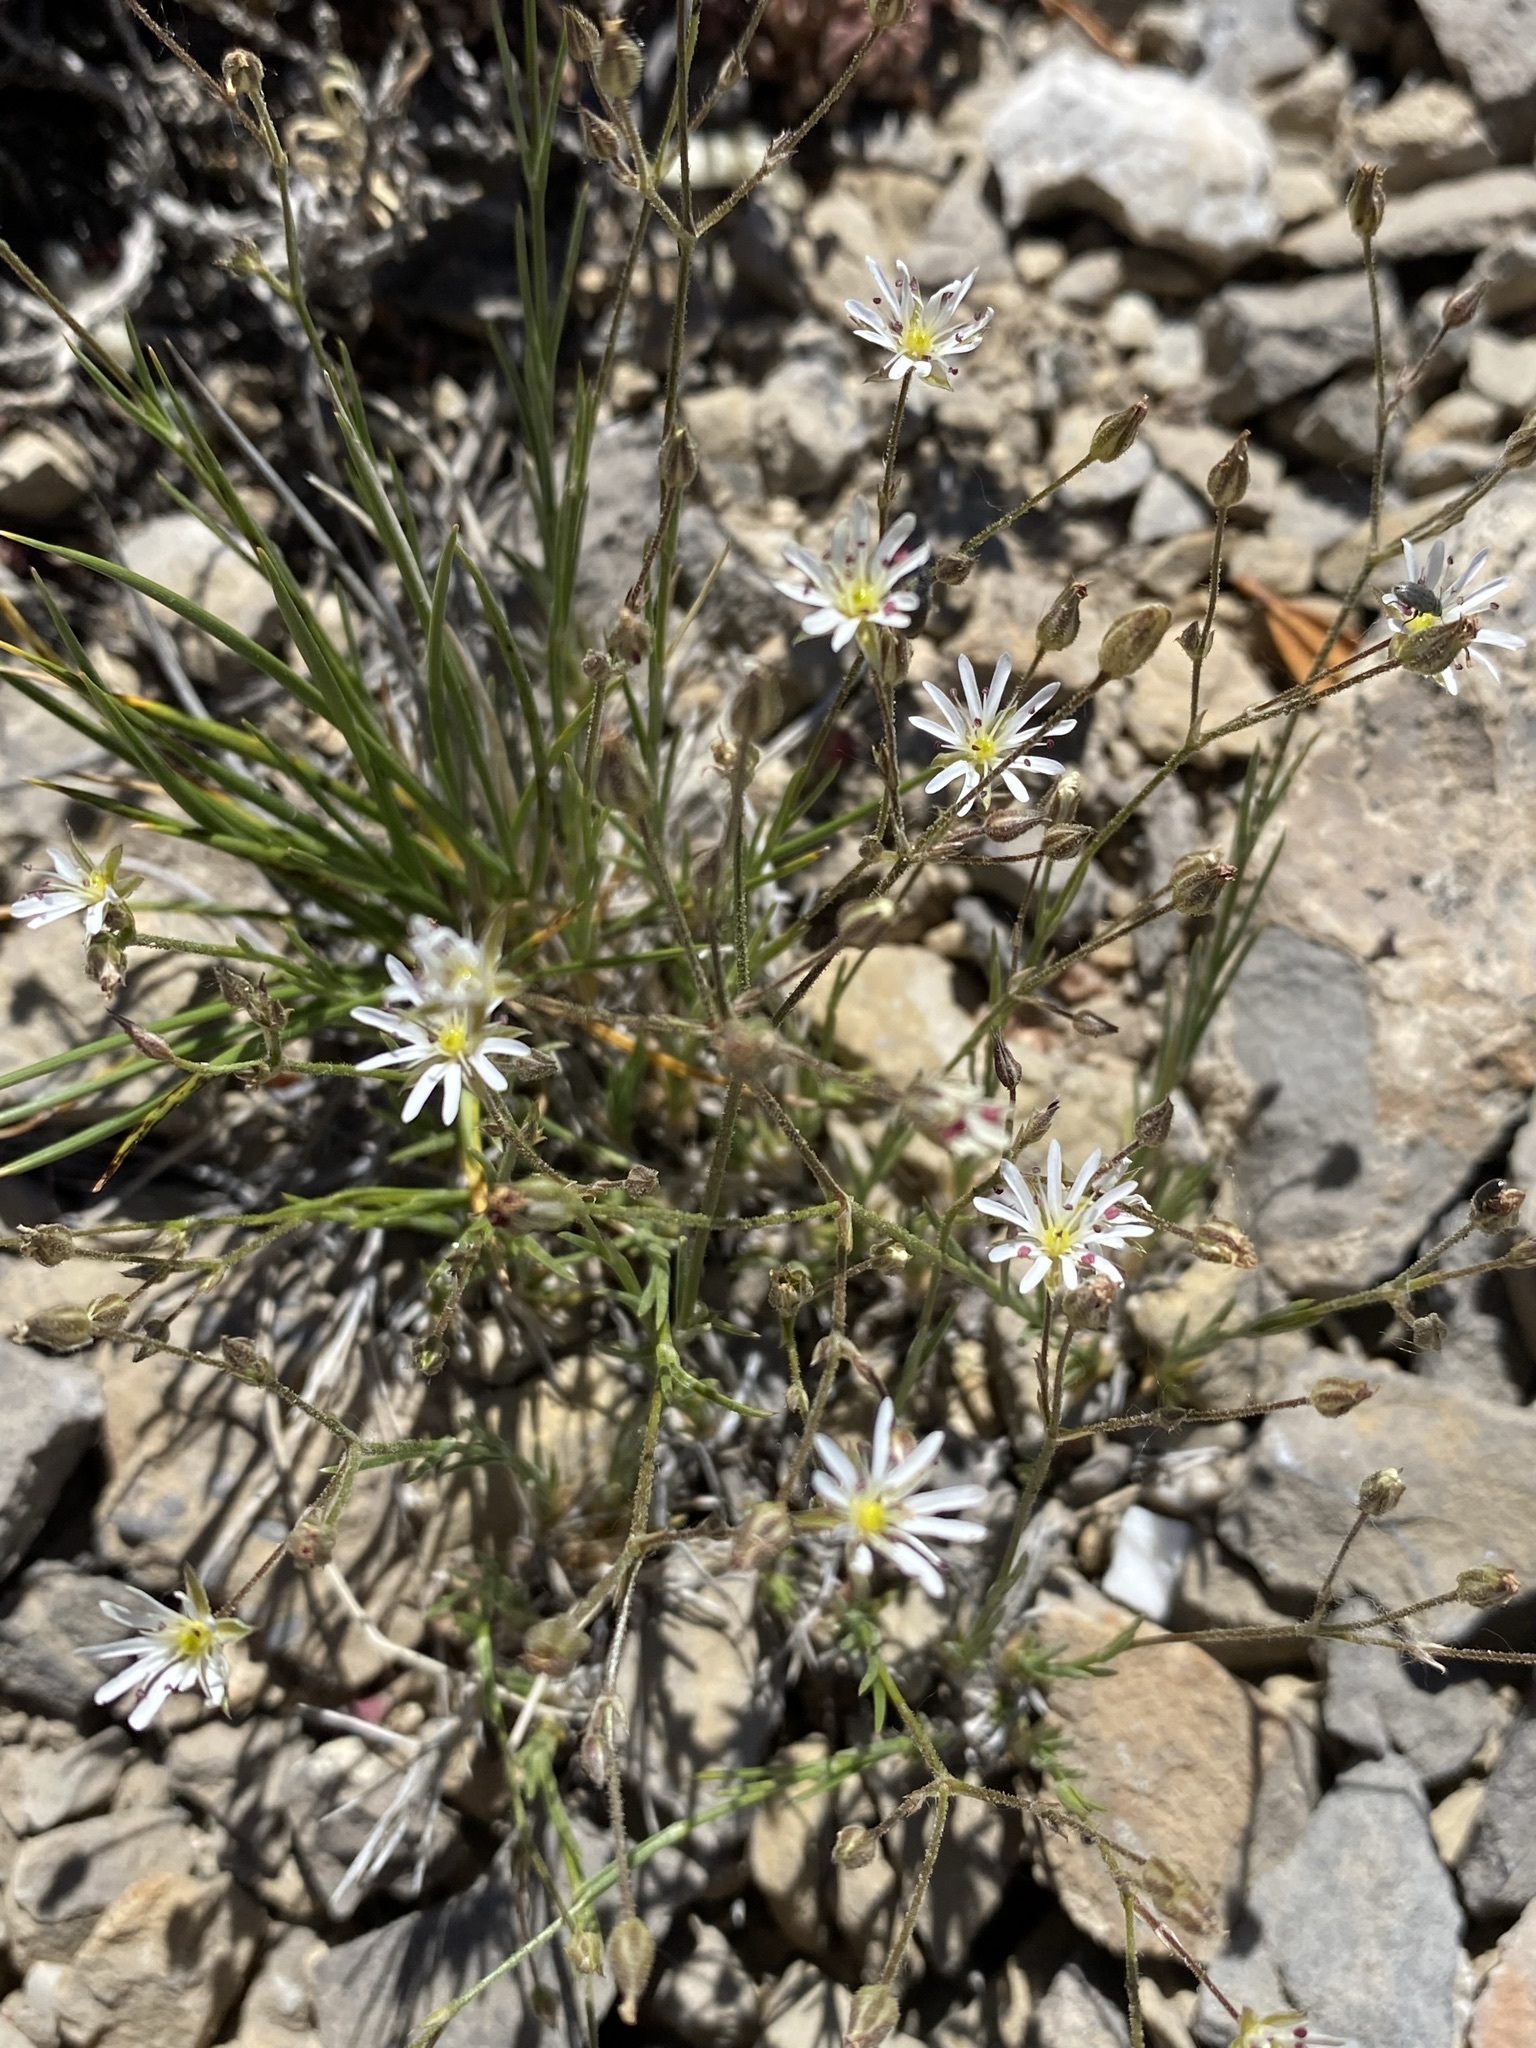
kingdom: Plantae
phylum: Tracheophyta
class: Magnoliopsida
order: Caryophyllales
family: Caryophyllaceae
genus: Eremogone
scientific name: Eremogone kingii
